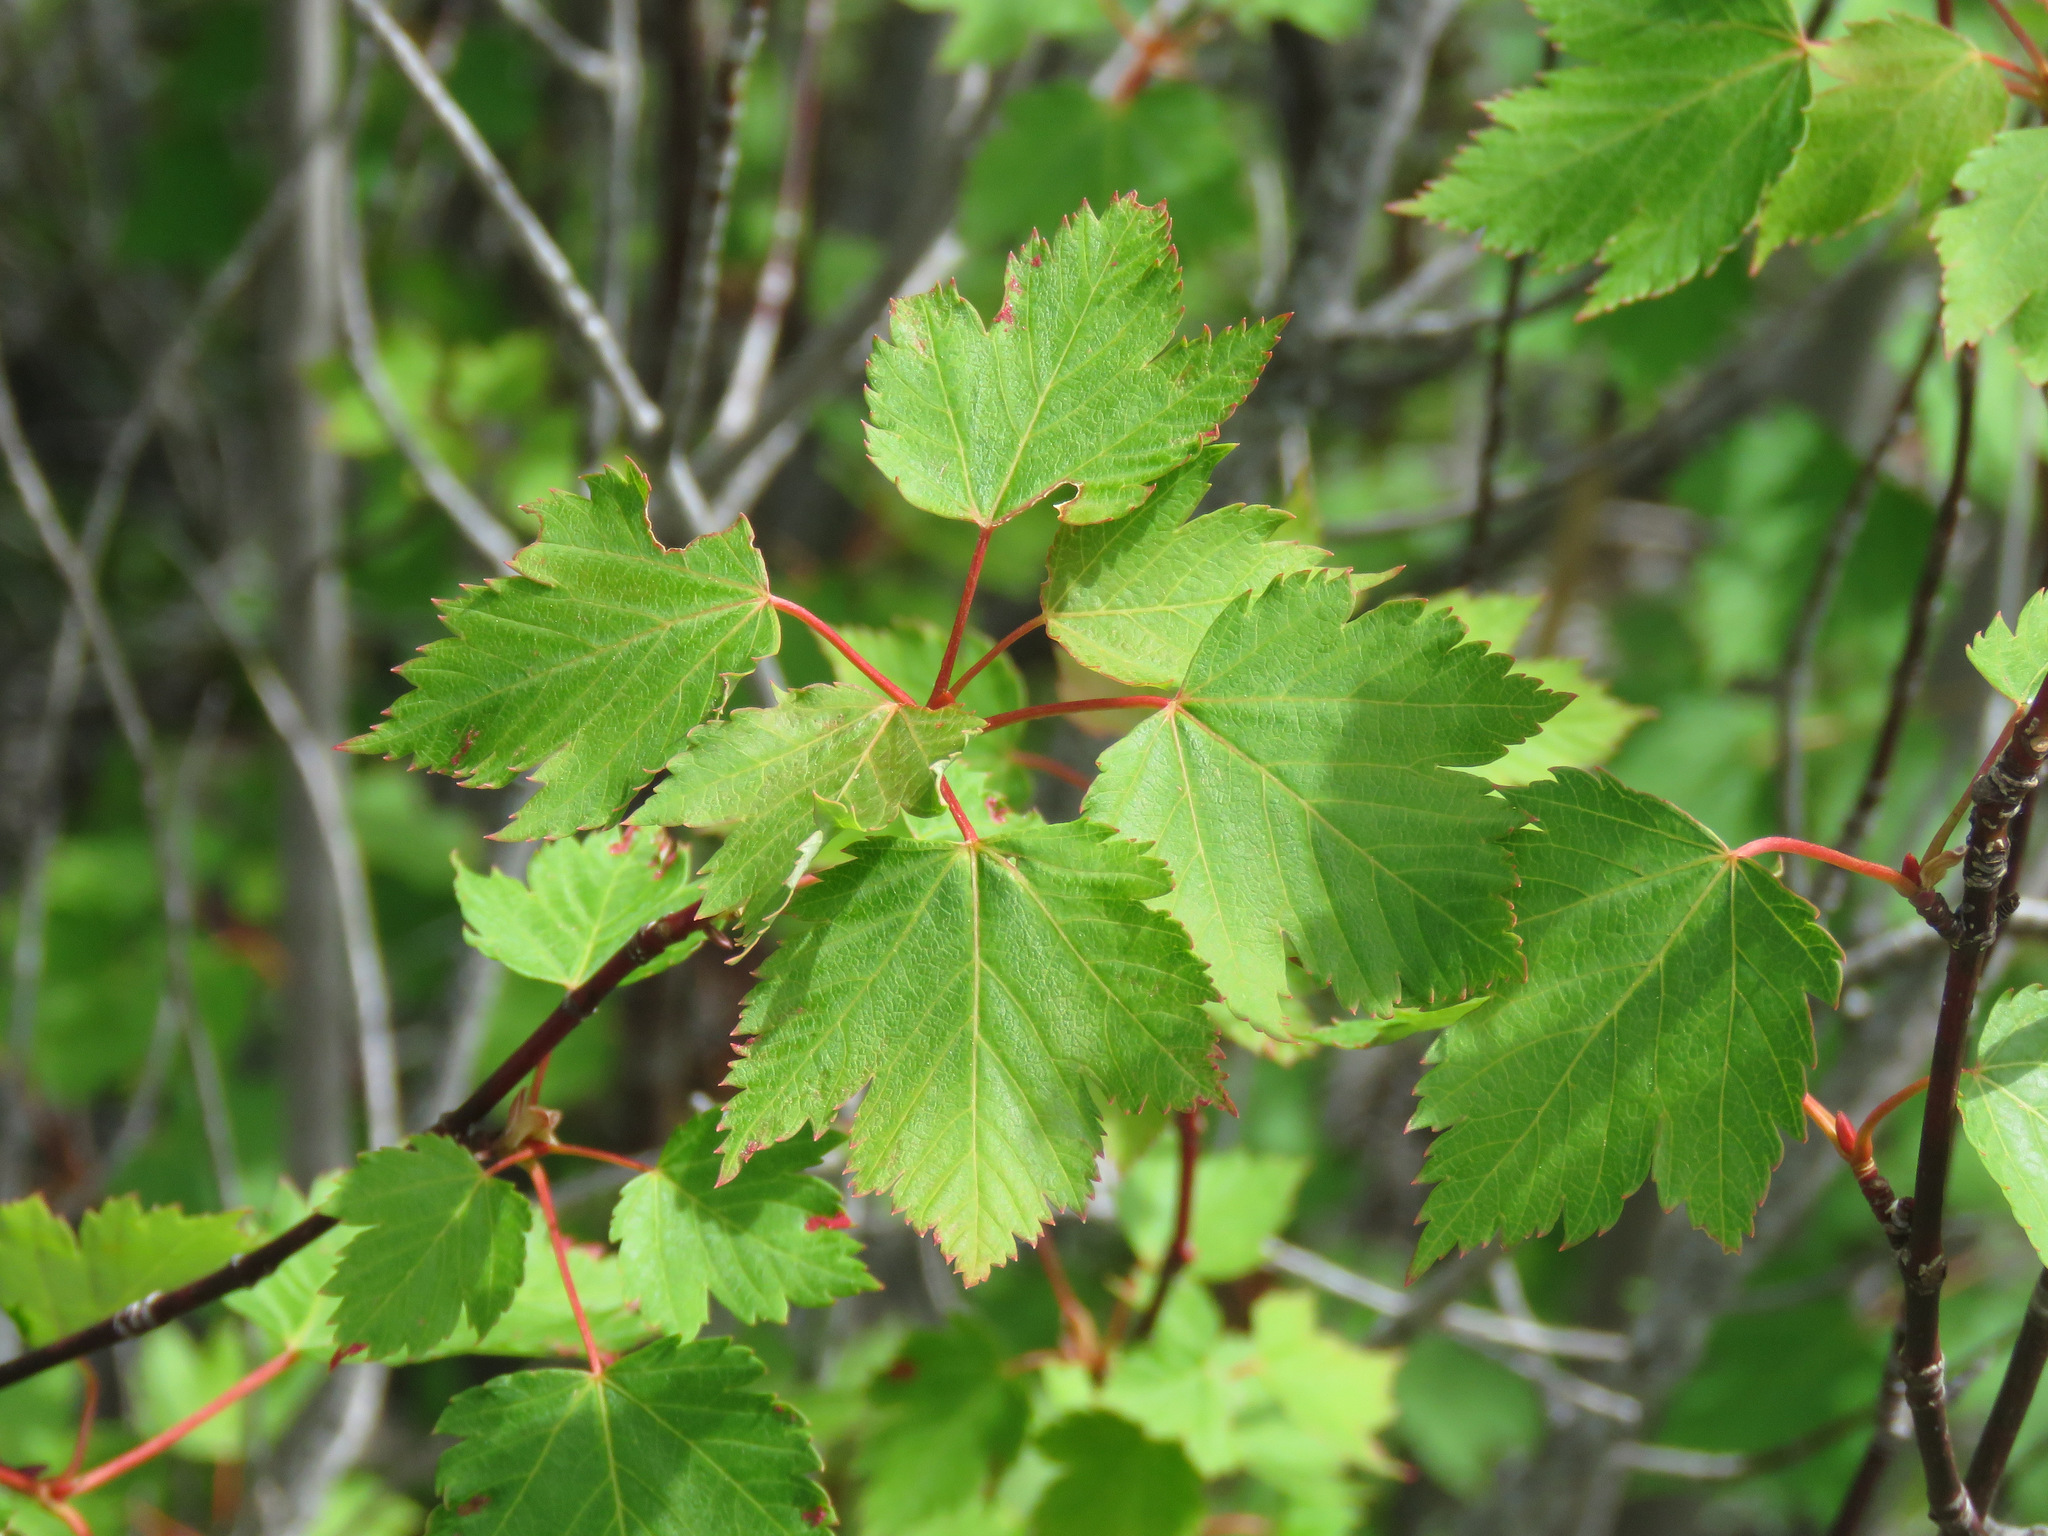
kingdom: Plantae
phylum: Tracheophyta
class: Magnoliopsida
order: Sapindales
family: Sapindaceae
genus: Acer
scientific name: Acer glabrum
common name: Rocky mountain maple
